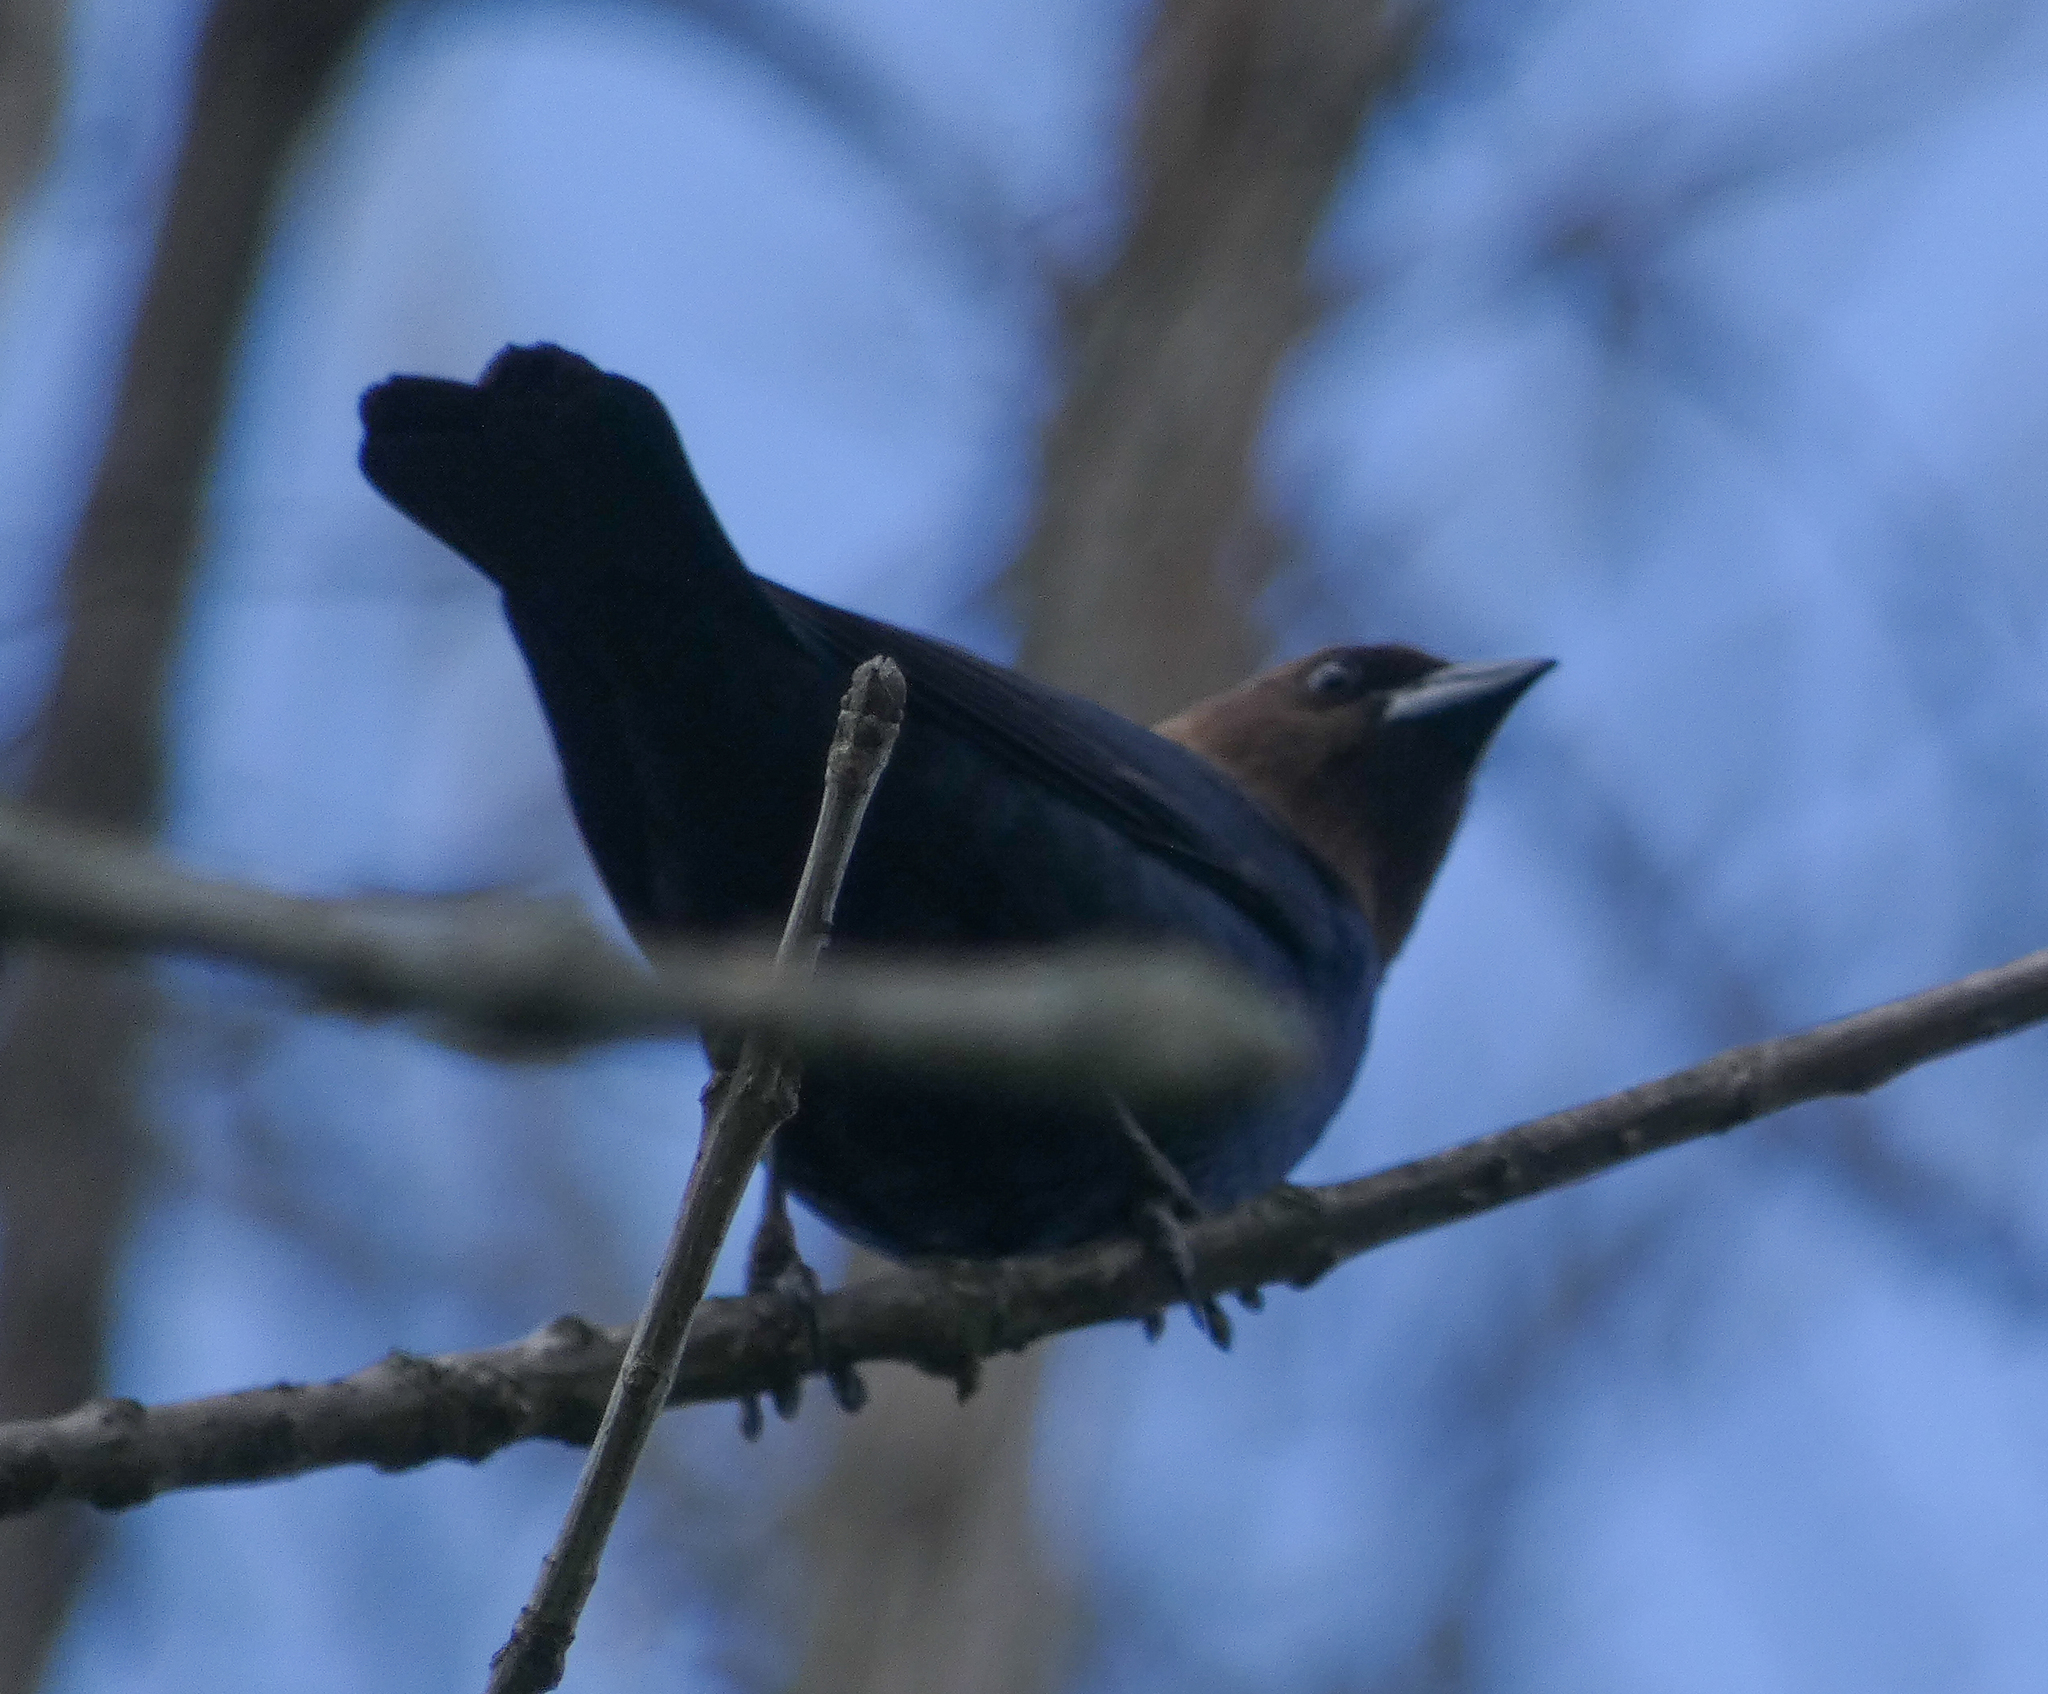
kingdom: Animalia
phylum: Chordata
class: Aves
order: Passeriformes
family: Icteridae
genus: Molothrus
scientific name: Molothrus ater
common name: Brown-headed cowbird
